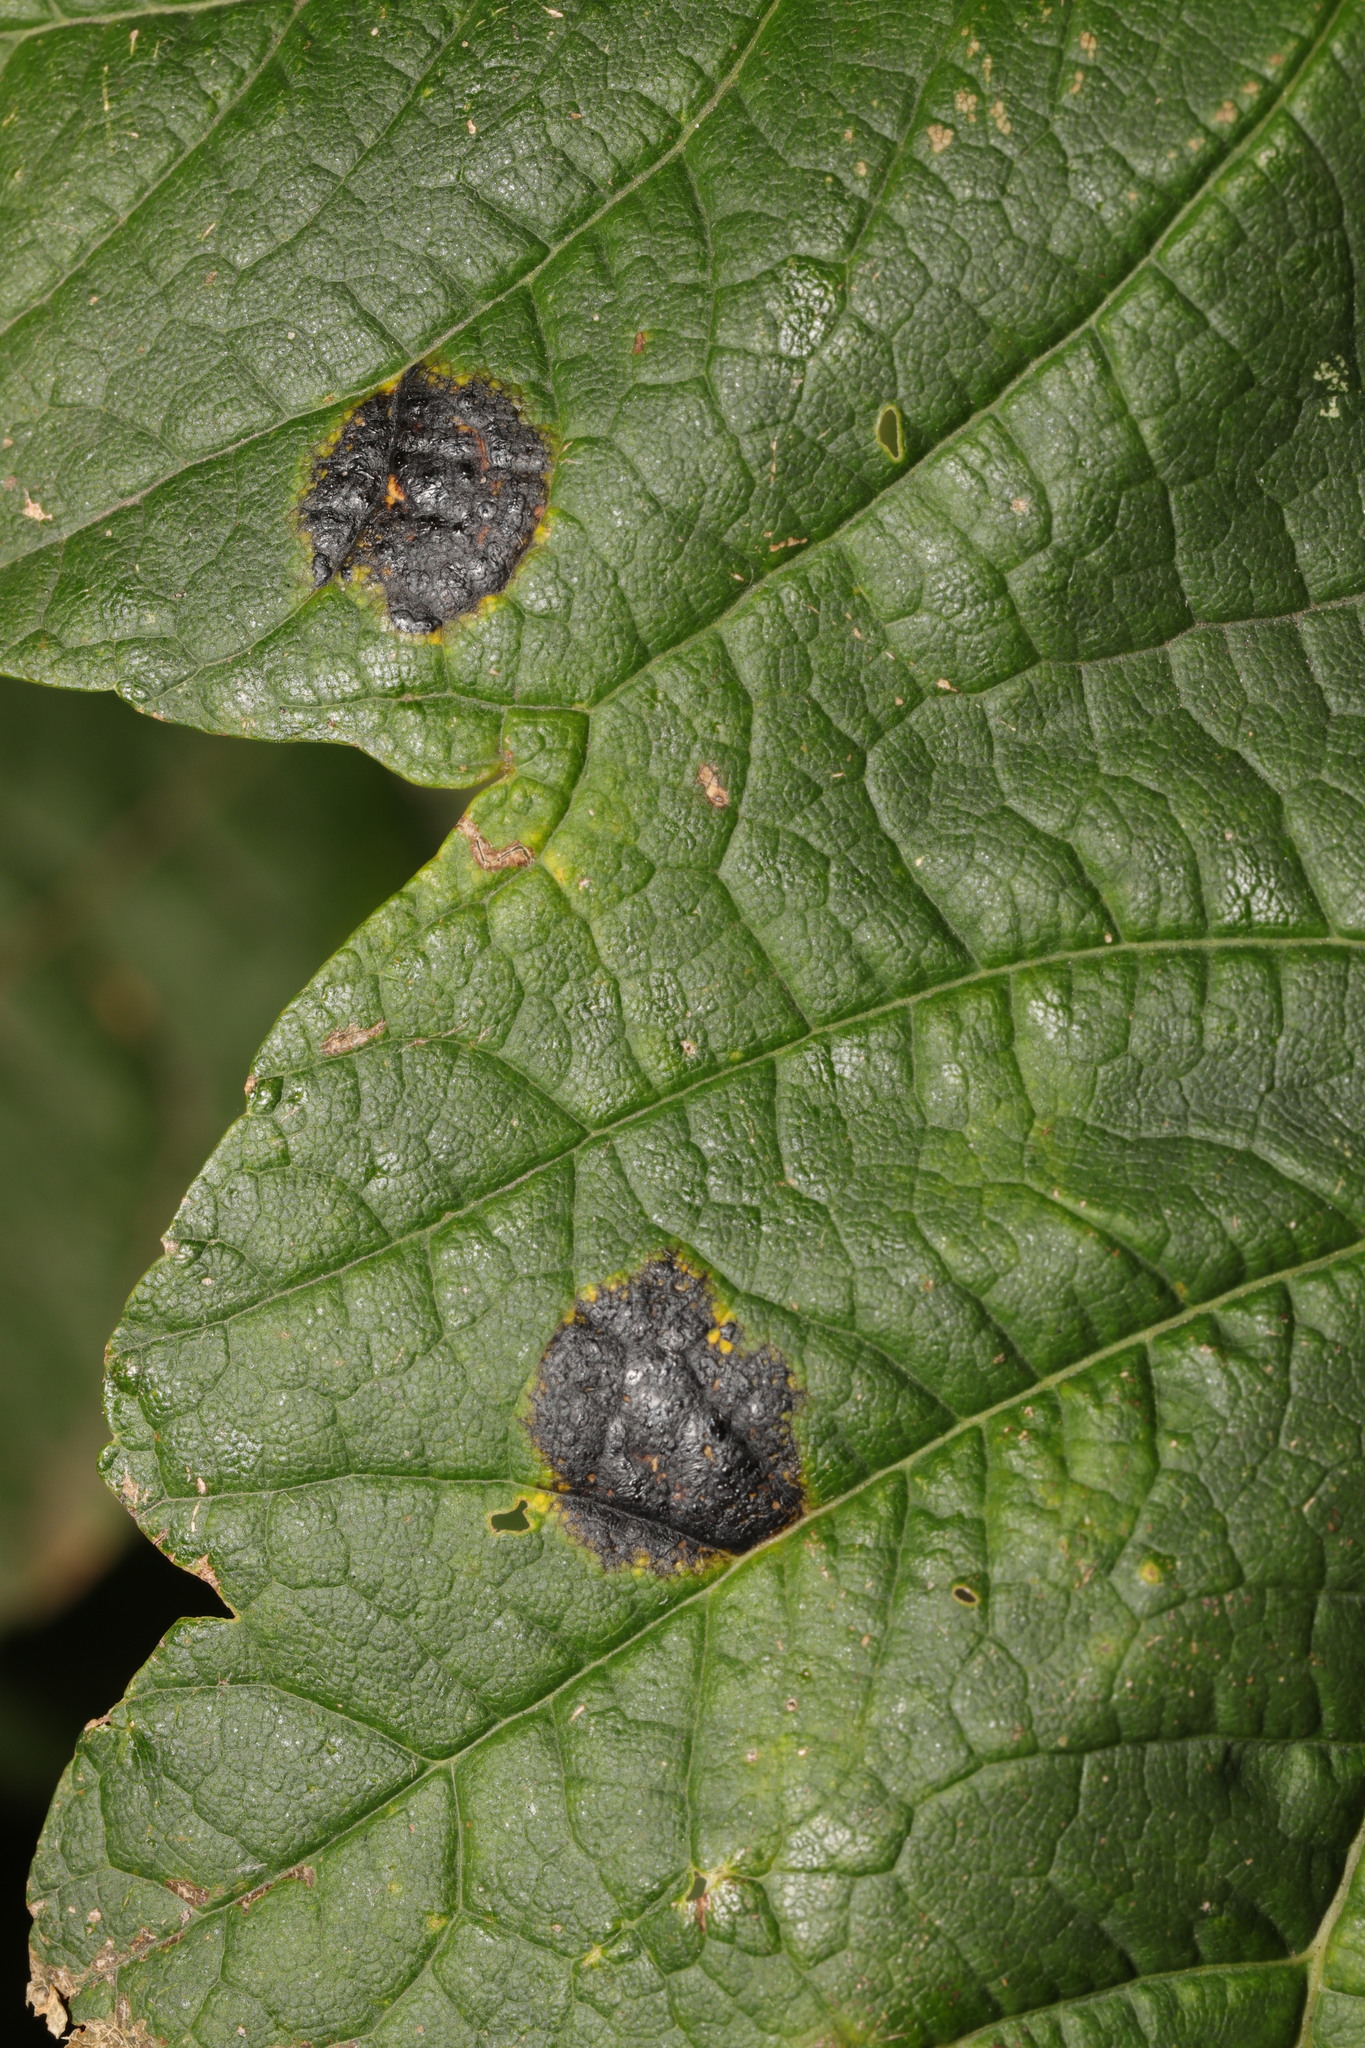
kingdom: Fungi
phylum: Ascomycota
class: Leotiomycetes
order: Rhytismatales
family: Rhytismataceae
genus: Rhytisma
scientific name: Rhytisma acerinum
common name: European tar spot
